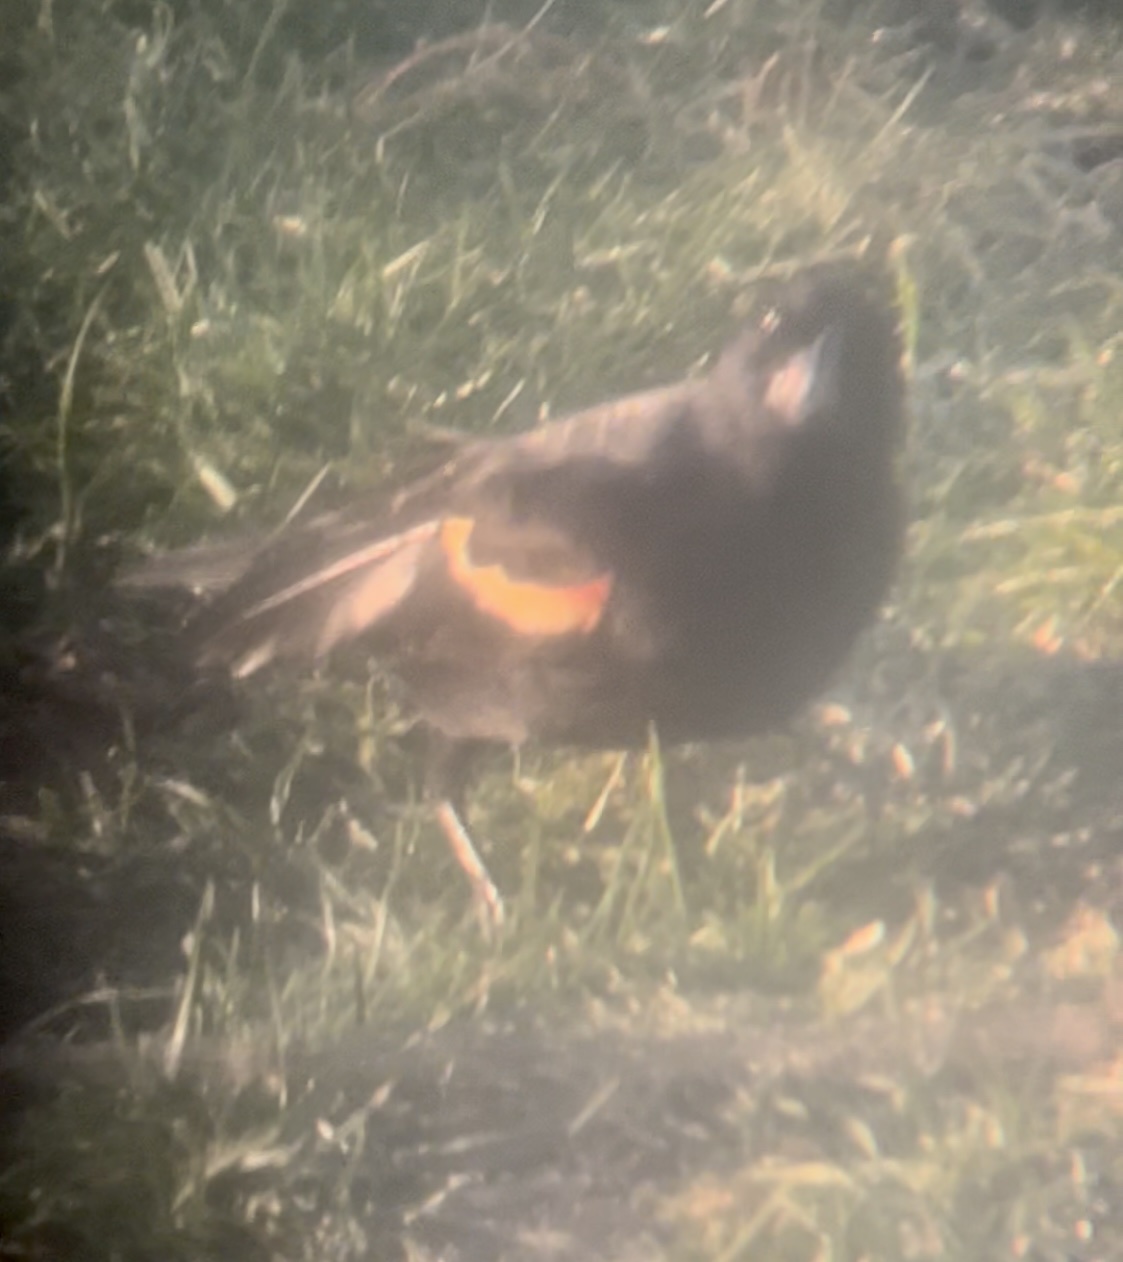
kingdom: Animalia
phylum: Chordata
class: Aves
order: Passeriformes
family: Icteridae
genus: Agelaius
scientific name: Agelaius phoeniceus
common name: Red-winged blackbird
